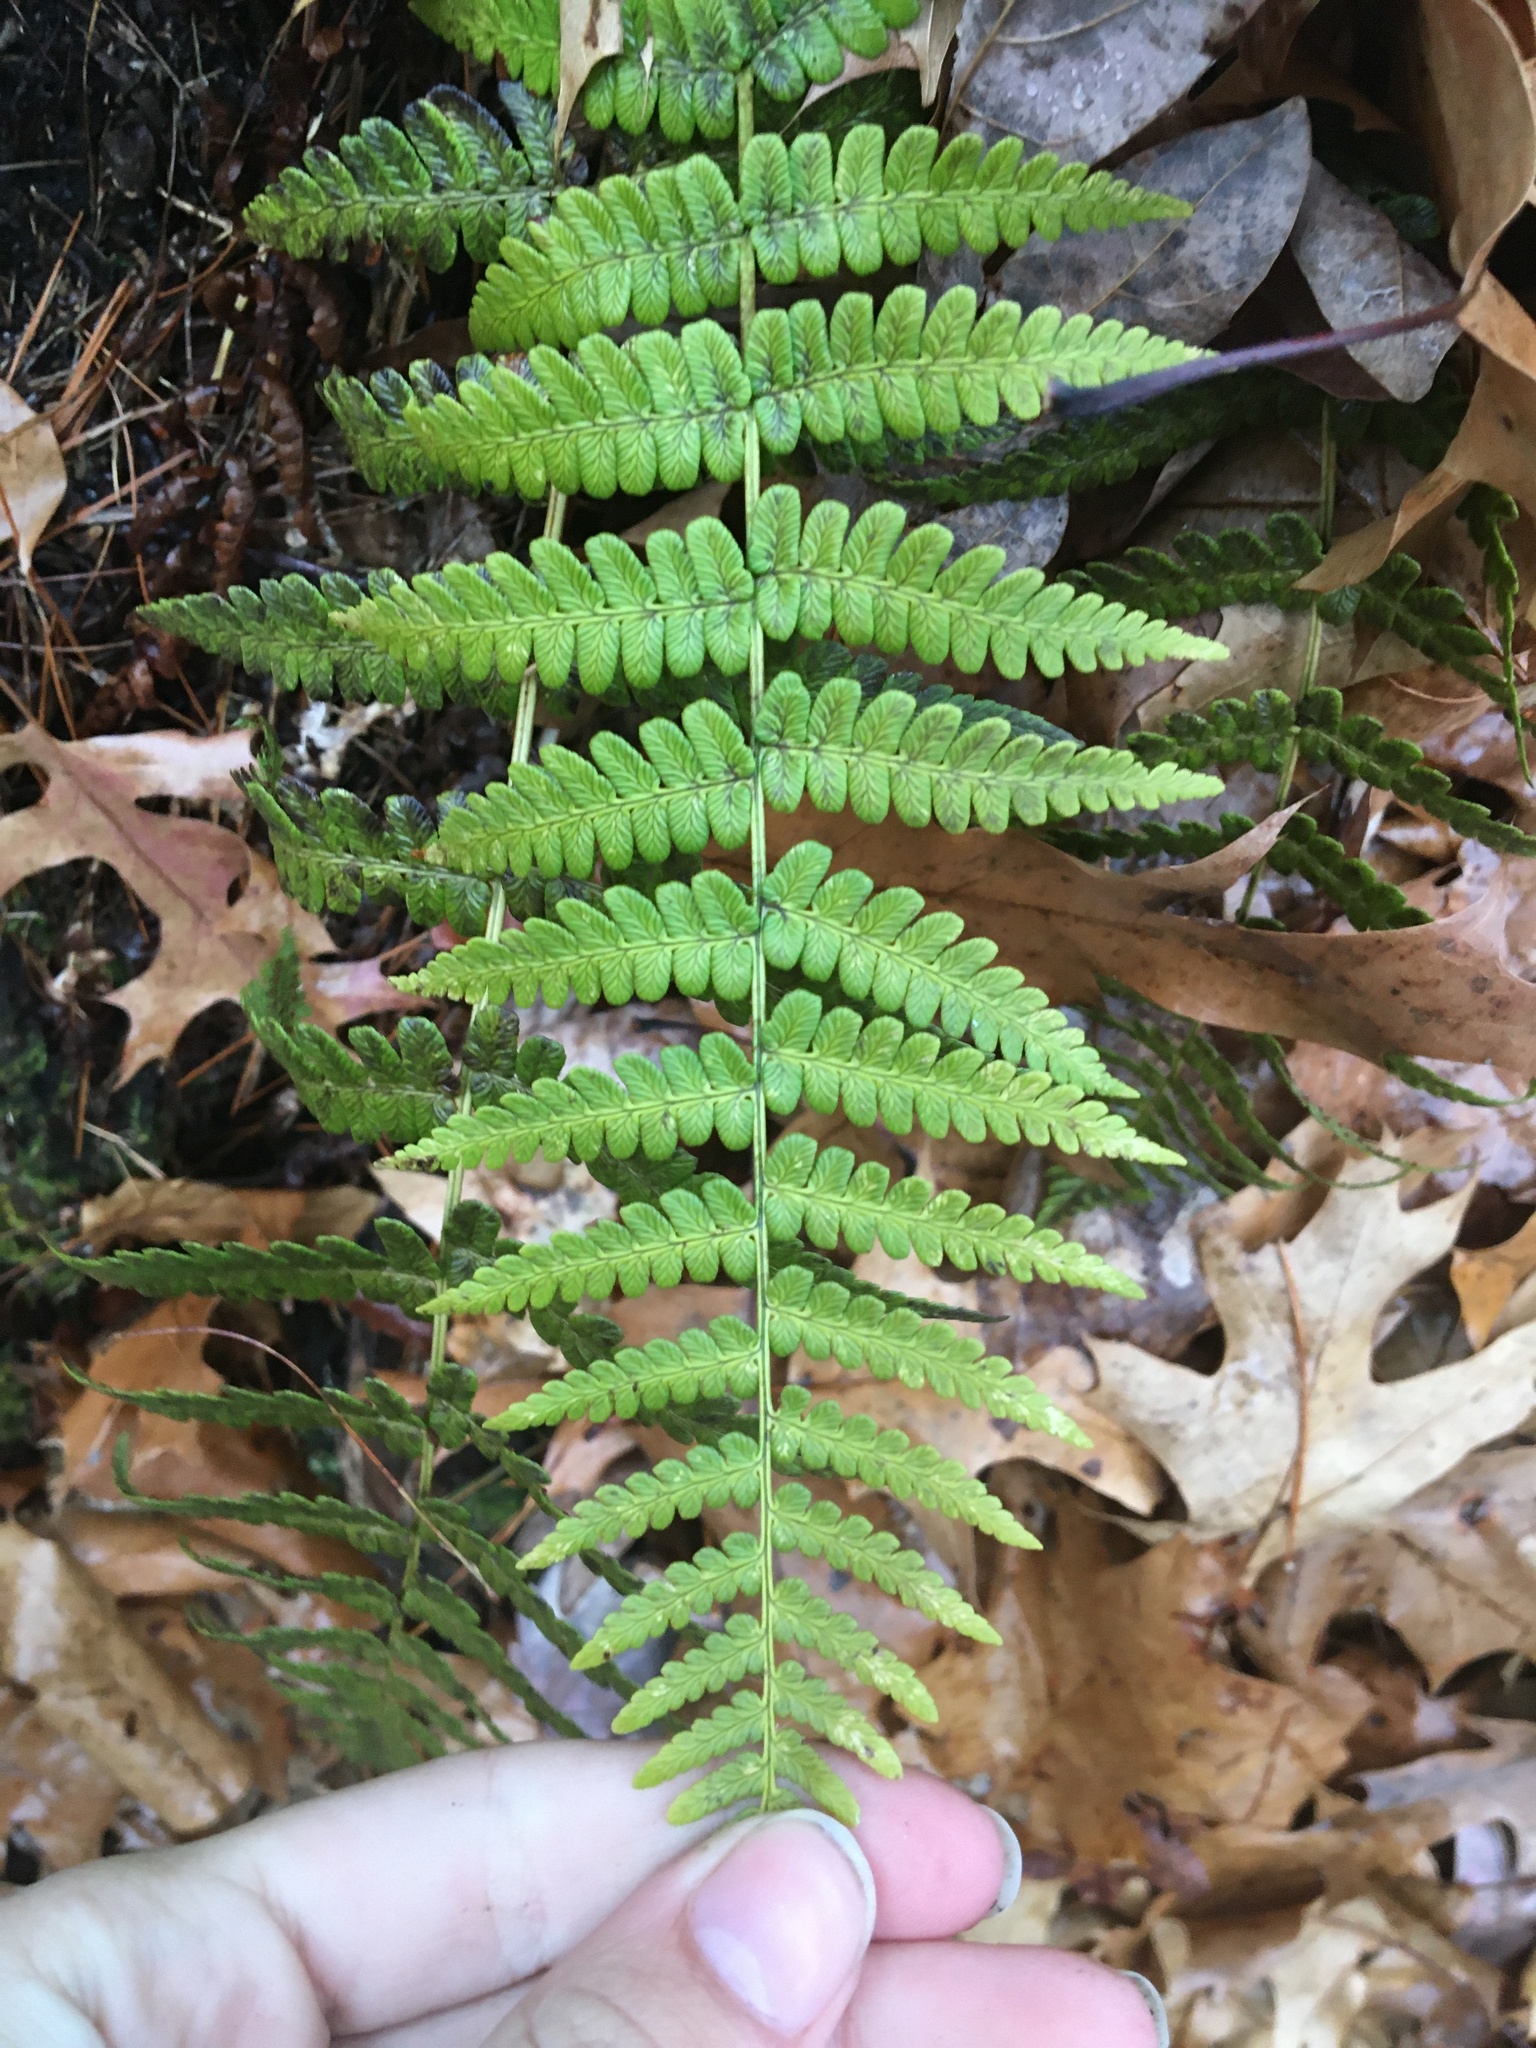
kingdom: Plantae
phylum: Tracheophyta
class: Polypodiopsida
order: Polypodiales
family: Dryopteridaceae
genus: Dryopteris
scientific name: Dryopteris marginalis
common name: Marginal wood fern
